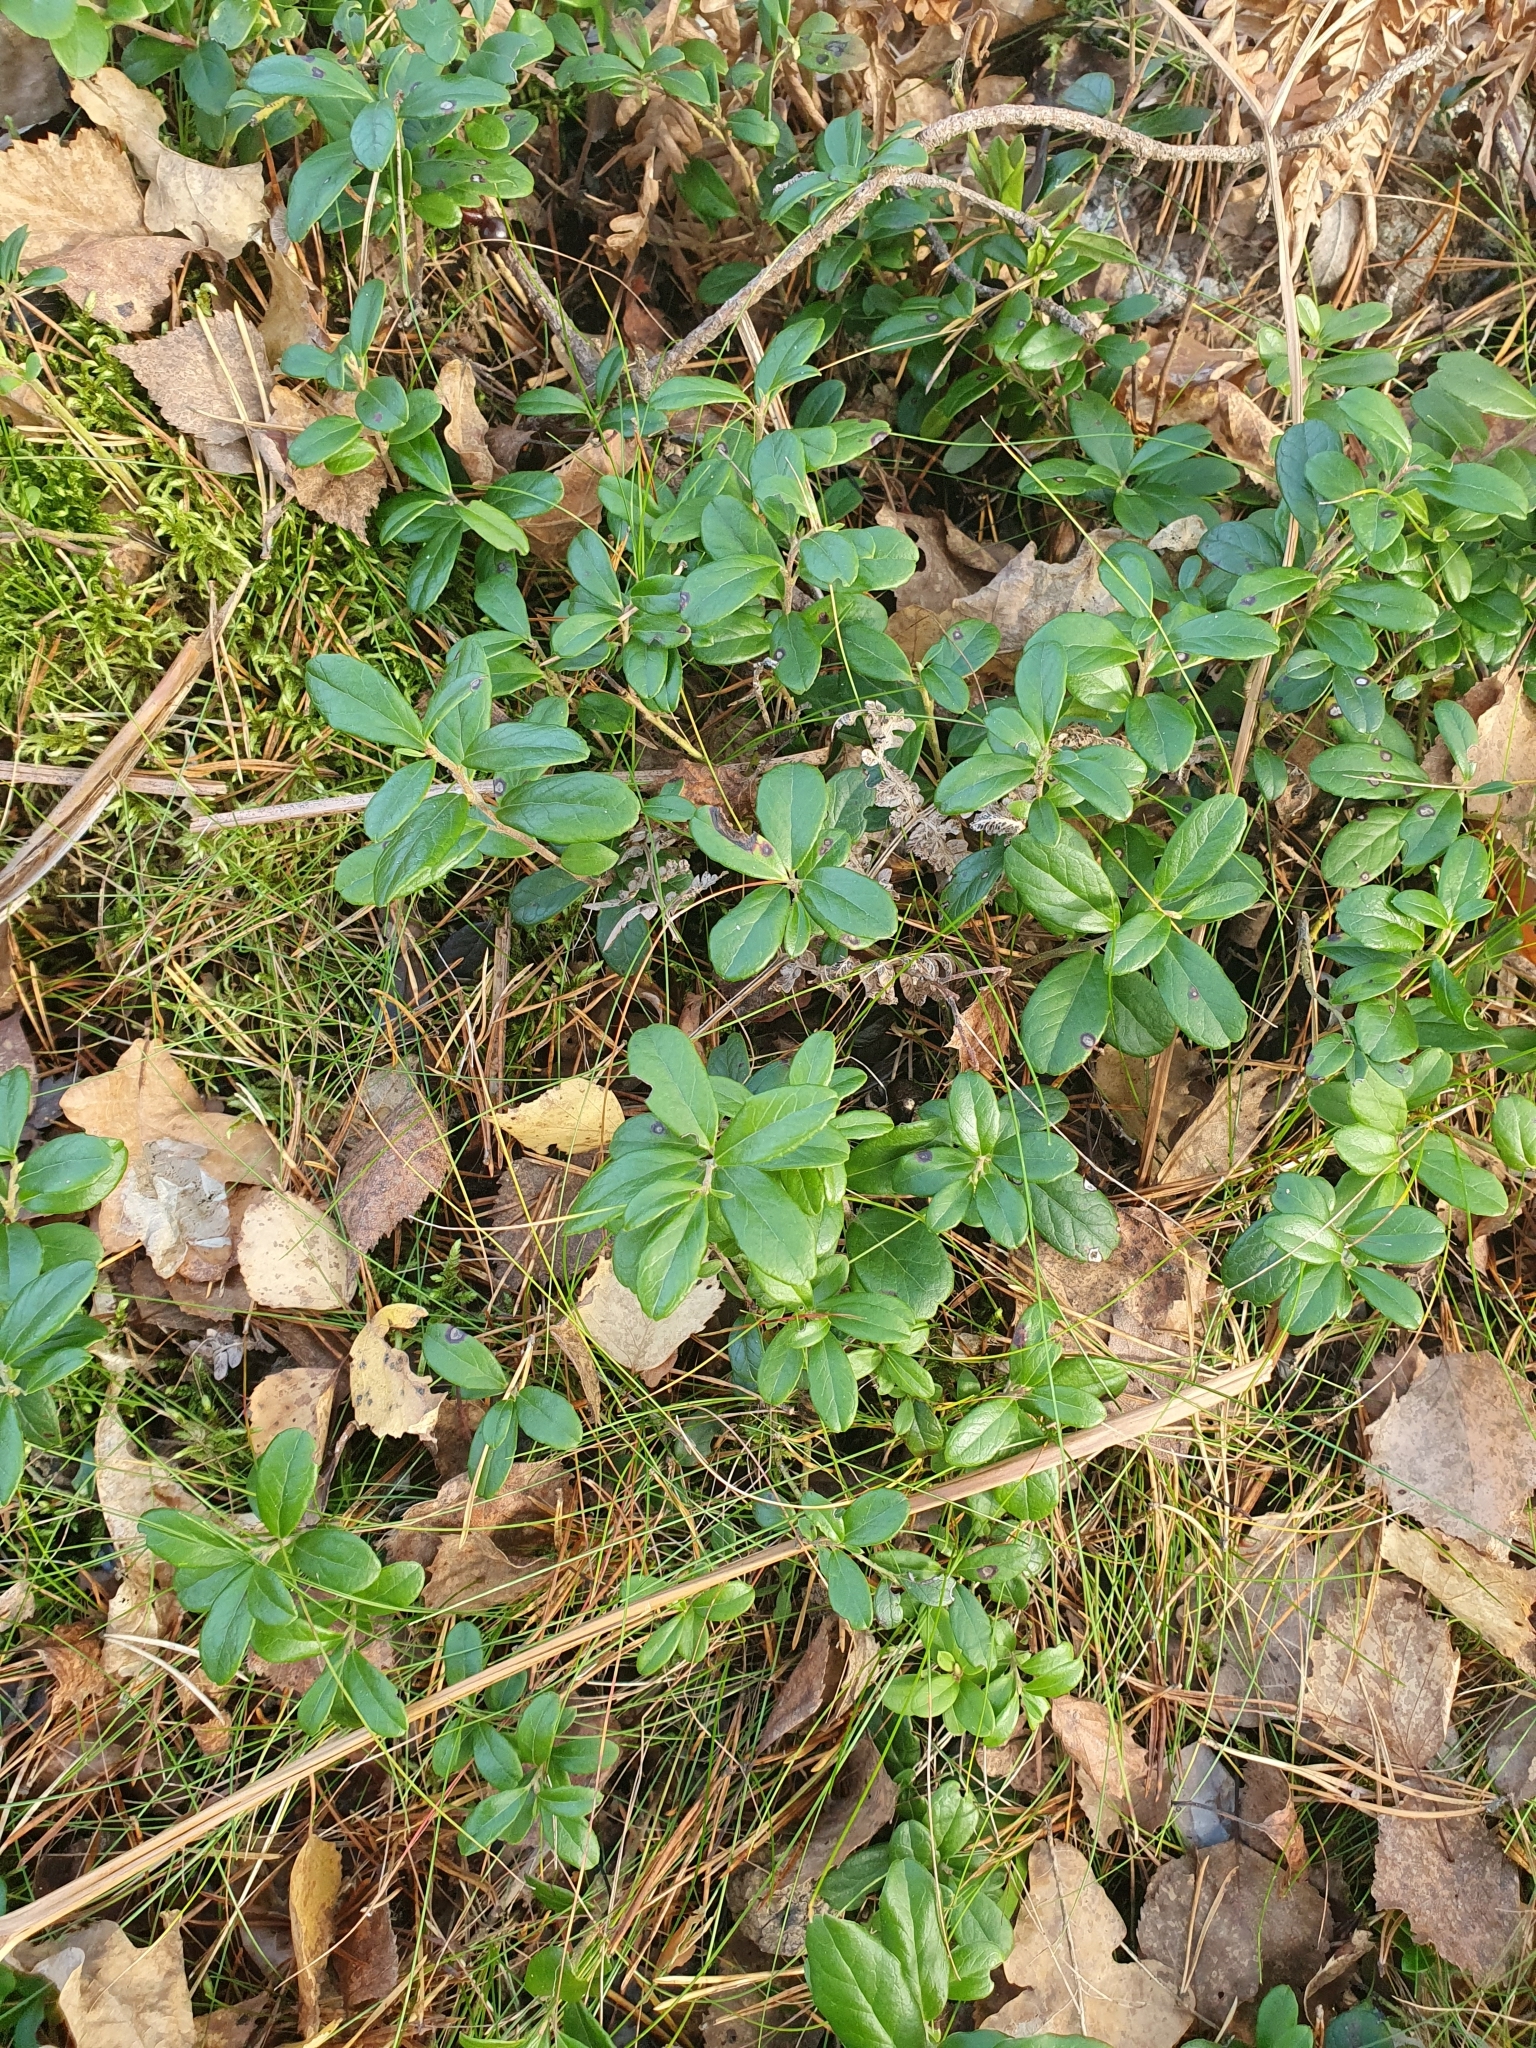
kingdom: Plantae
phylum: Tracheophyta
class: Magnoliopsida
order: Ericales
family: Ericaceae
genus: Vaccinium
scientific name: Vaccinium vitis-idaea
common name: Cowberry
